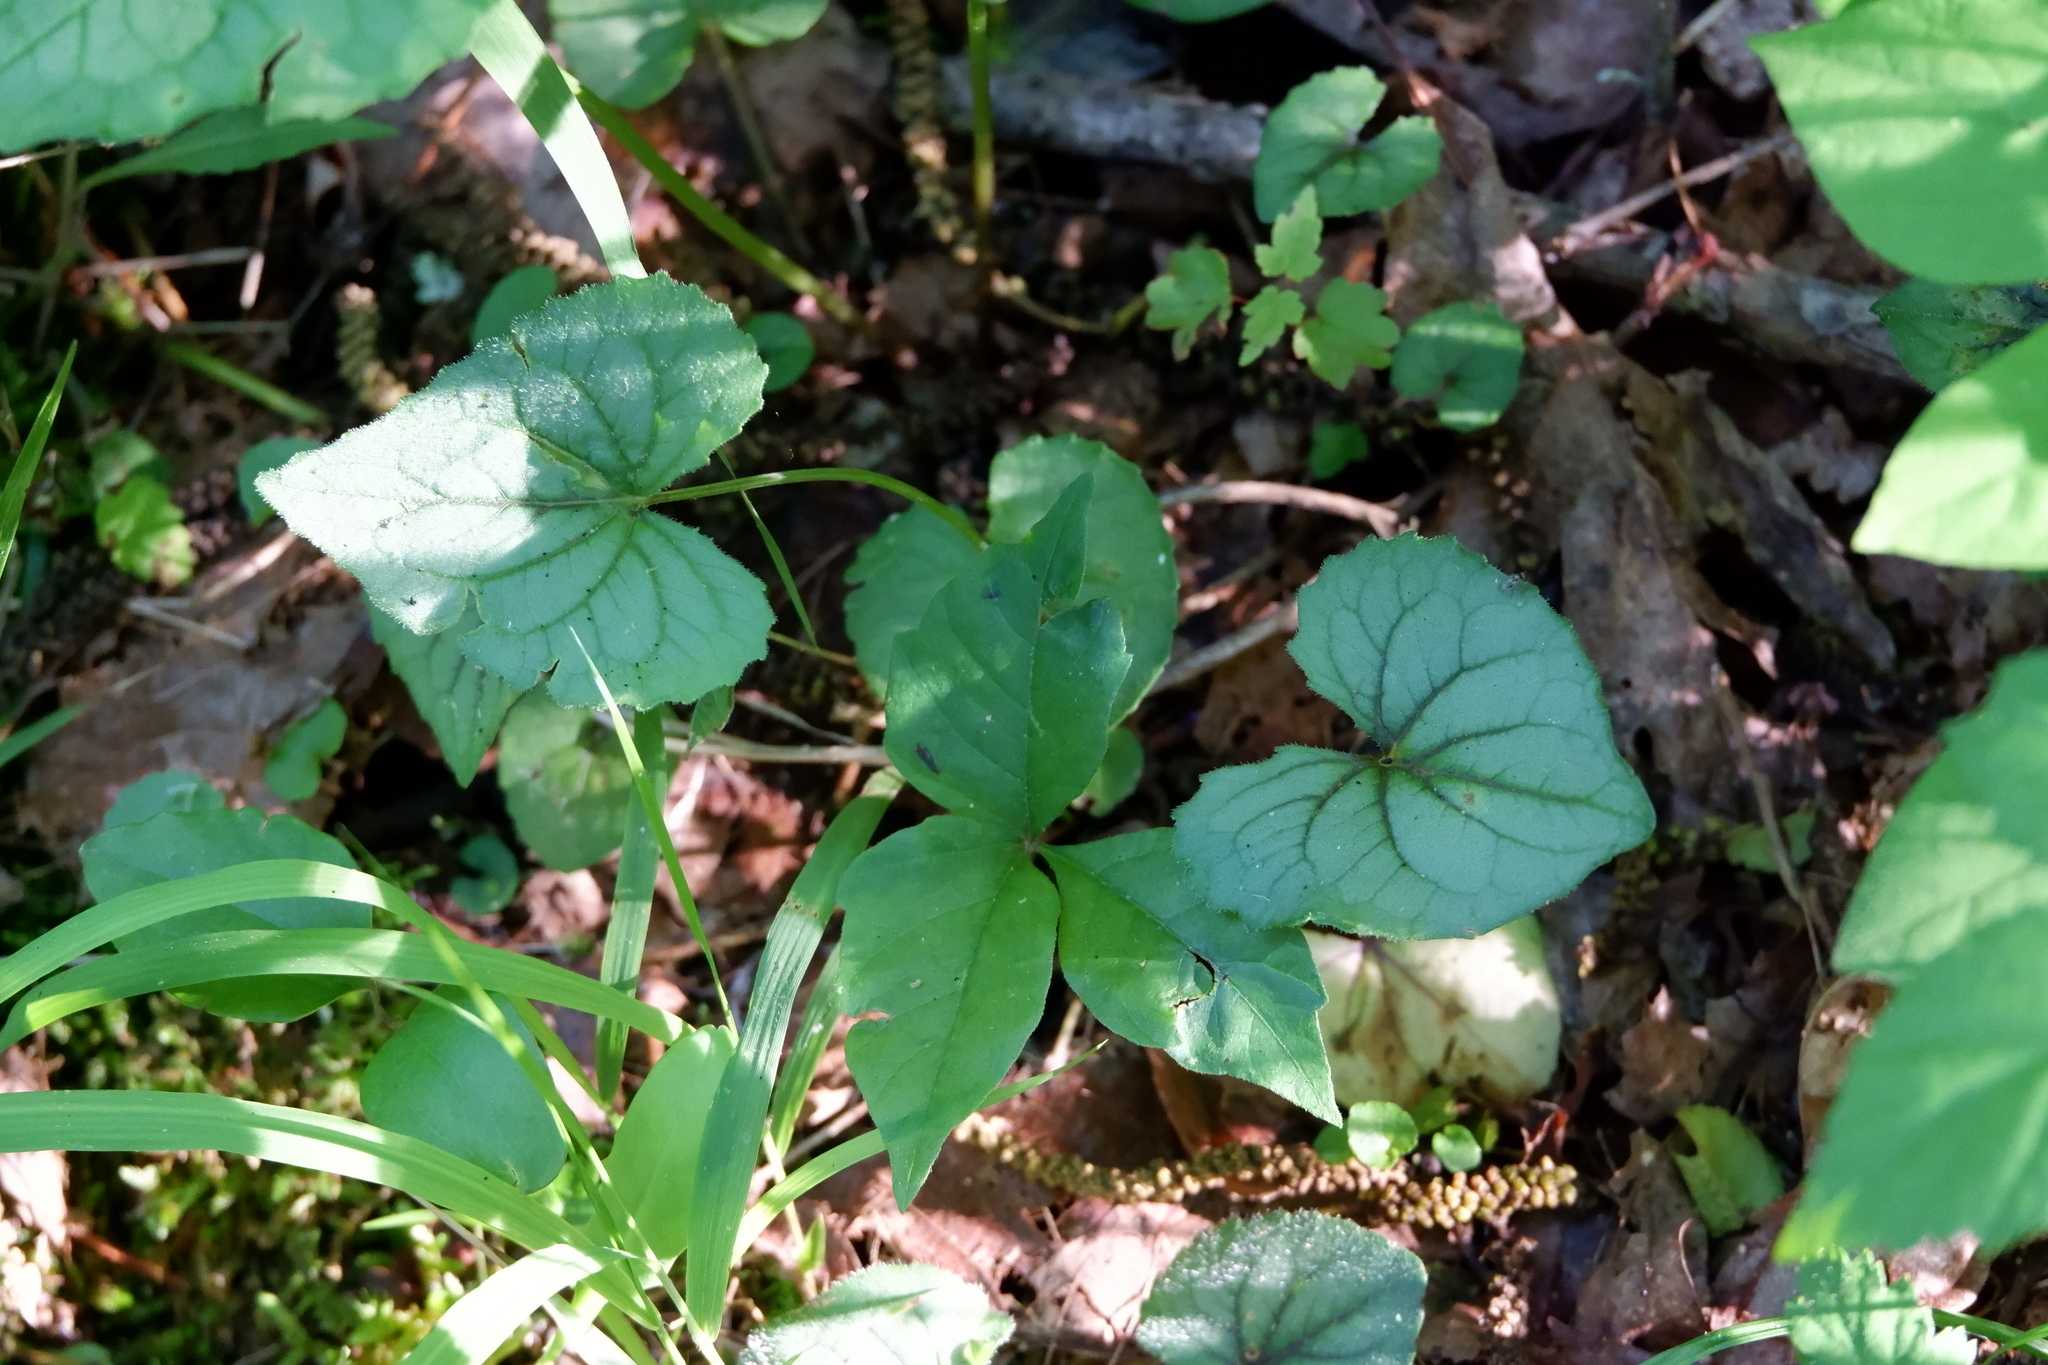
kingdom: Plantae
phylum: Tracheophyta
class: Magnoliopsida
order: Malpighiales
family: Violaceae
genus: Viola
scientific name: Viola hirsutula
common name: Southern wood violet
